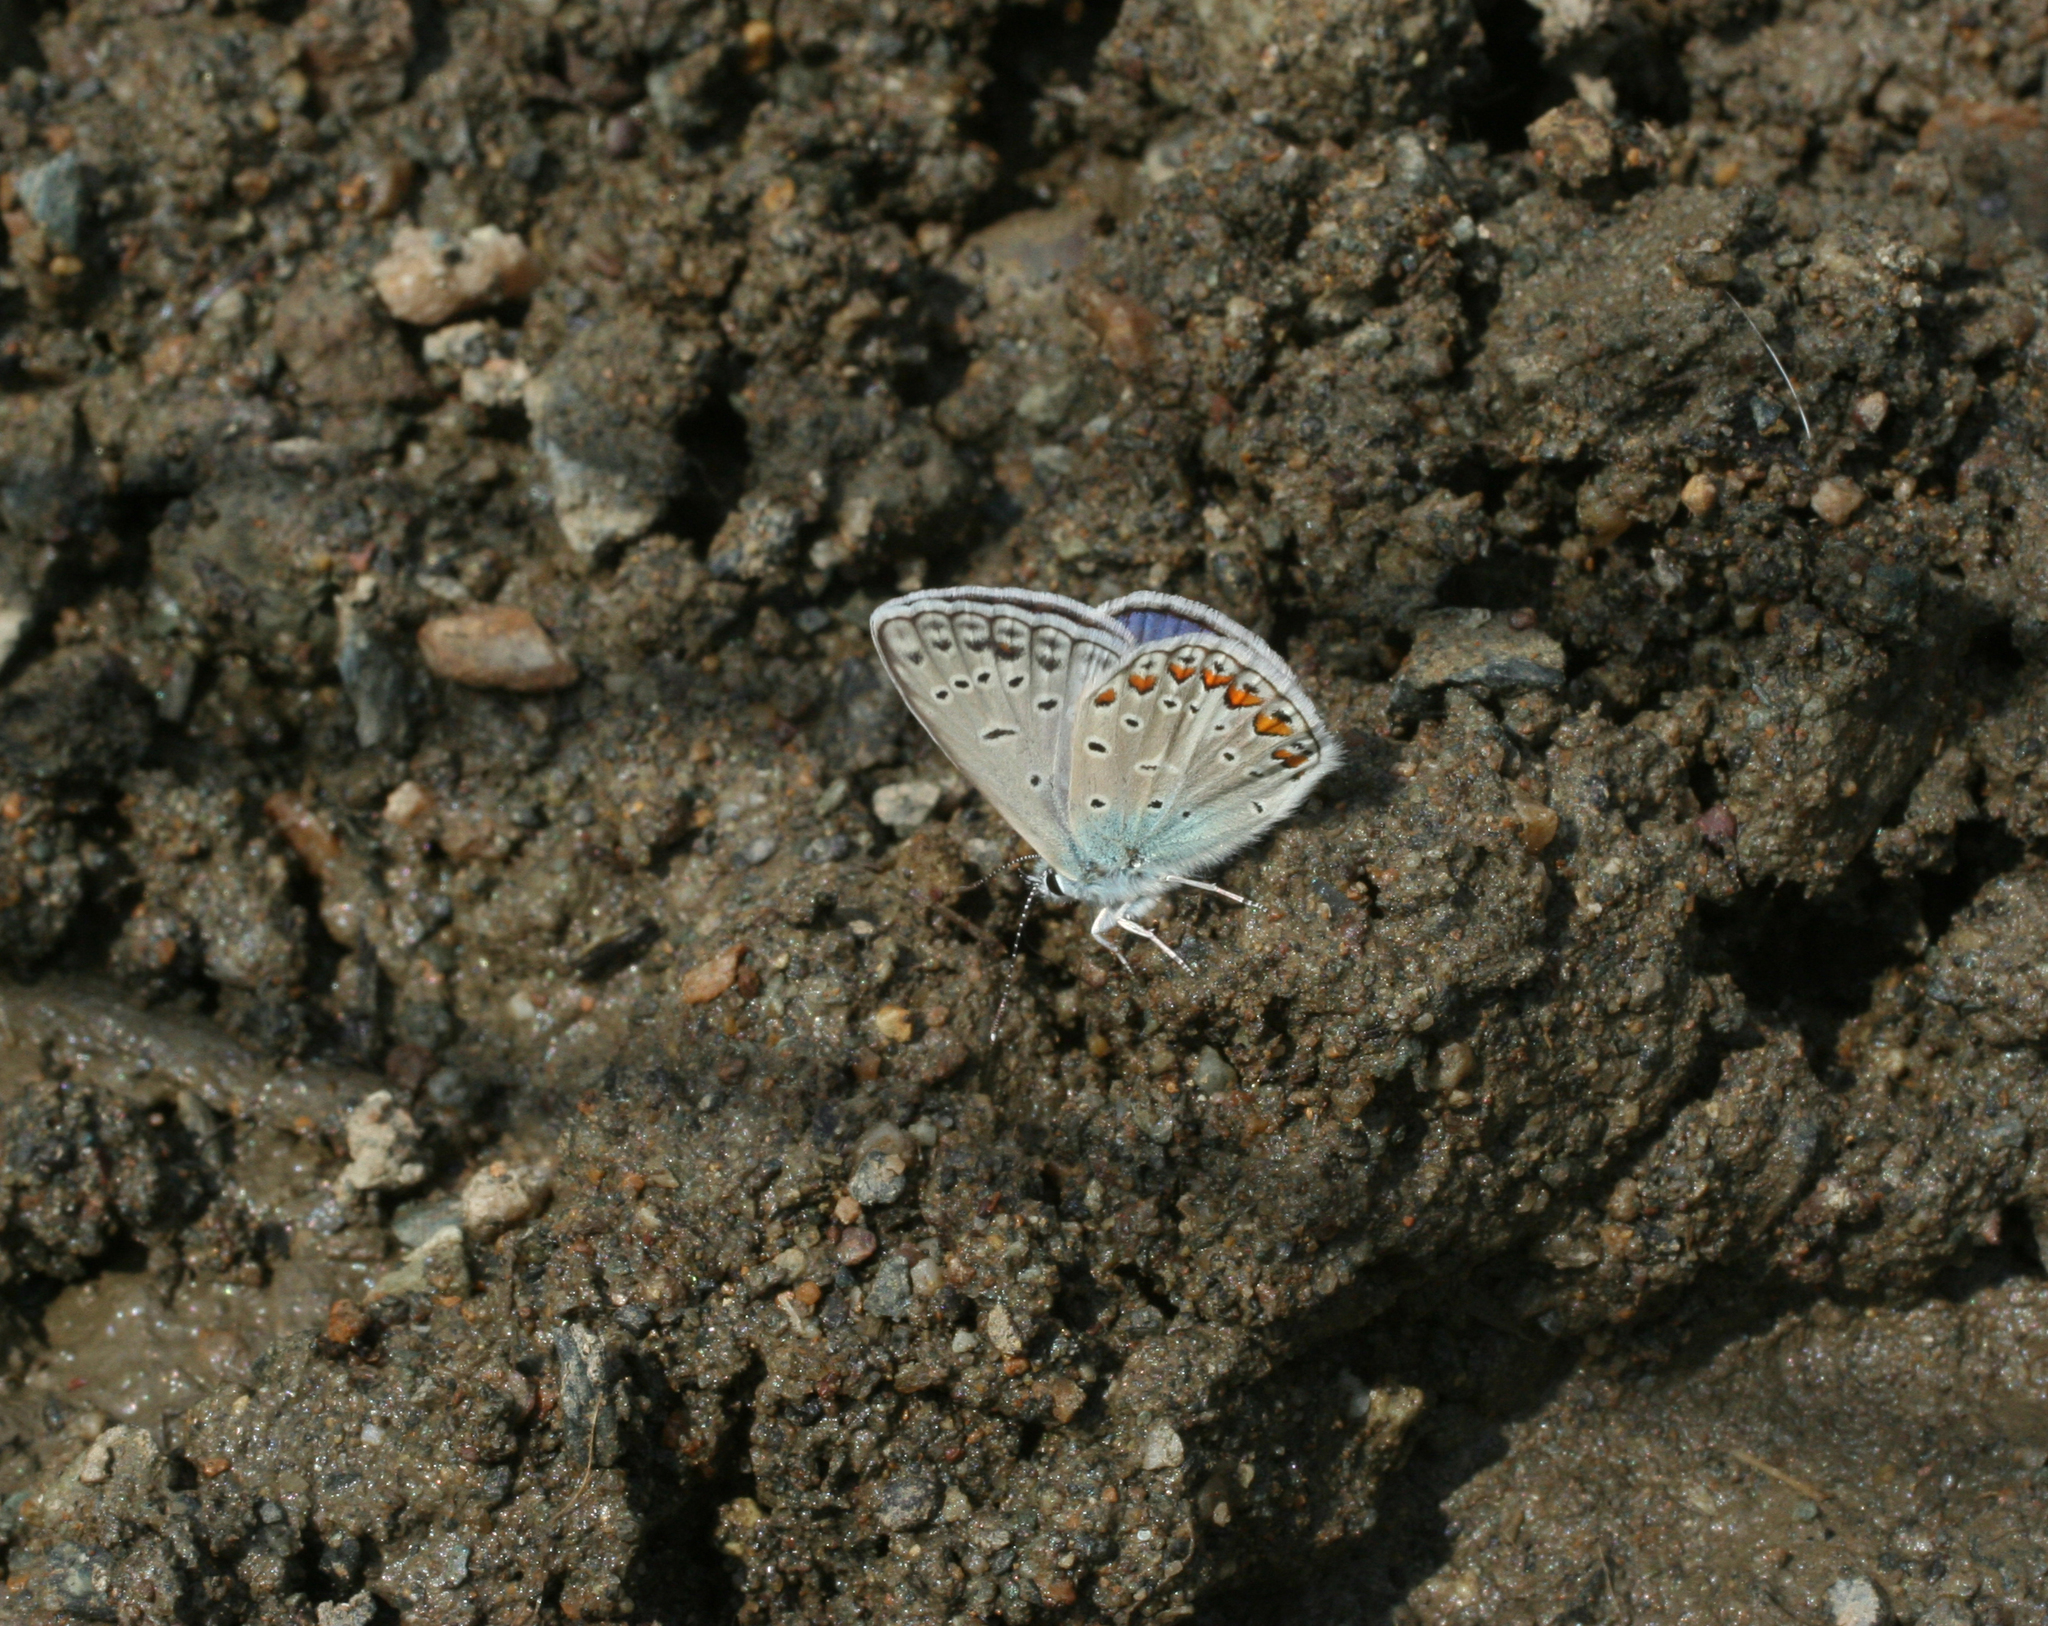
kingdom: Animalia
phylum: Arthropoda
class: Insecta
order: Lepidoptera
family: Lycaenidae
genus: Polyommatus
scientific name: Polyommatus icarus
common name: Common blue
